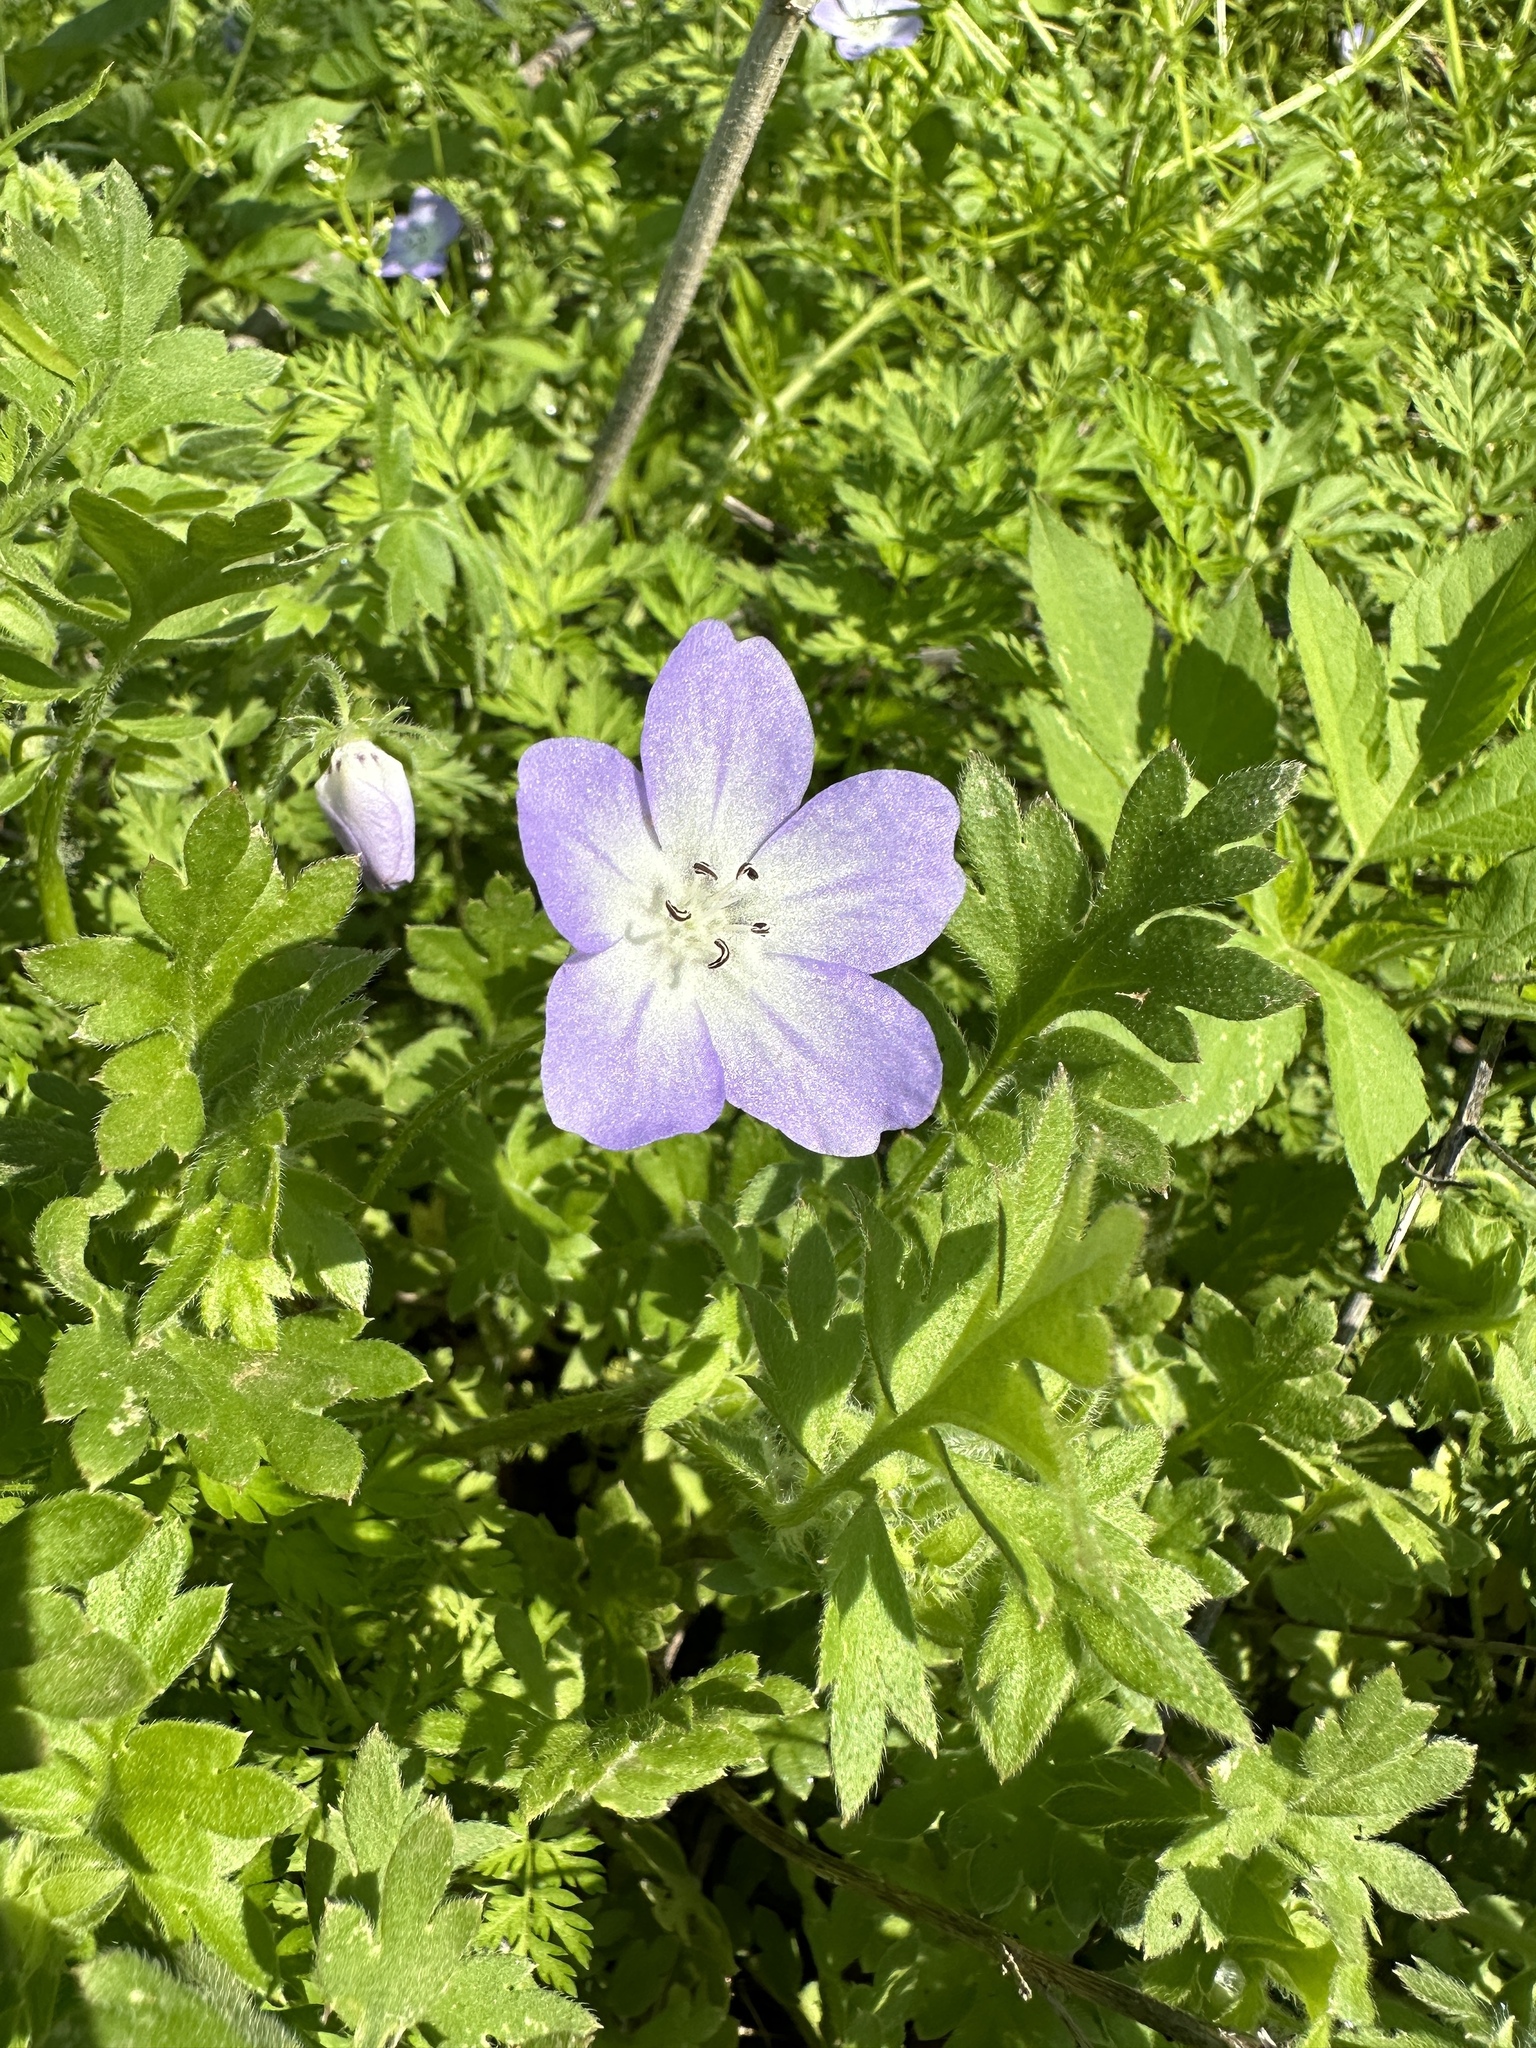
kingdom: Plantae
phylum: Tracheophyta
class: Magnoliopsida
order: Boraginales
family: Hydrophyllaceae
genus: Nemophila
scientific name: Nemophila phacelioides
